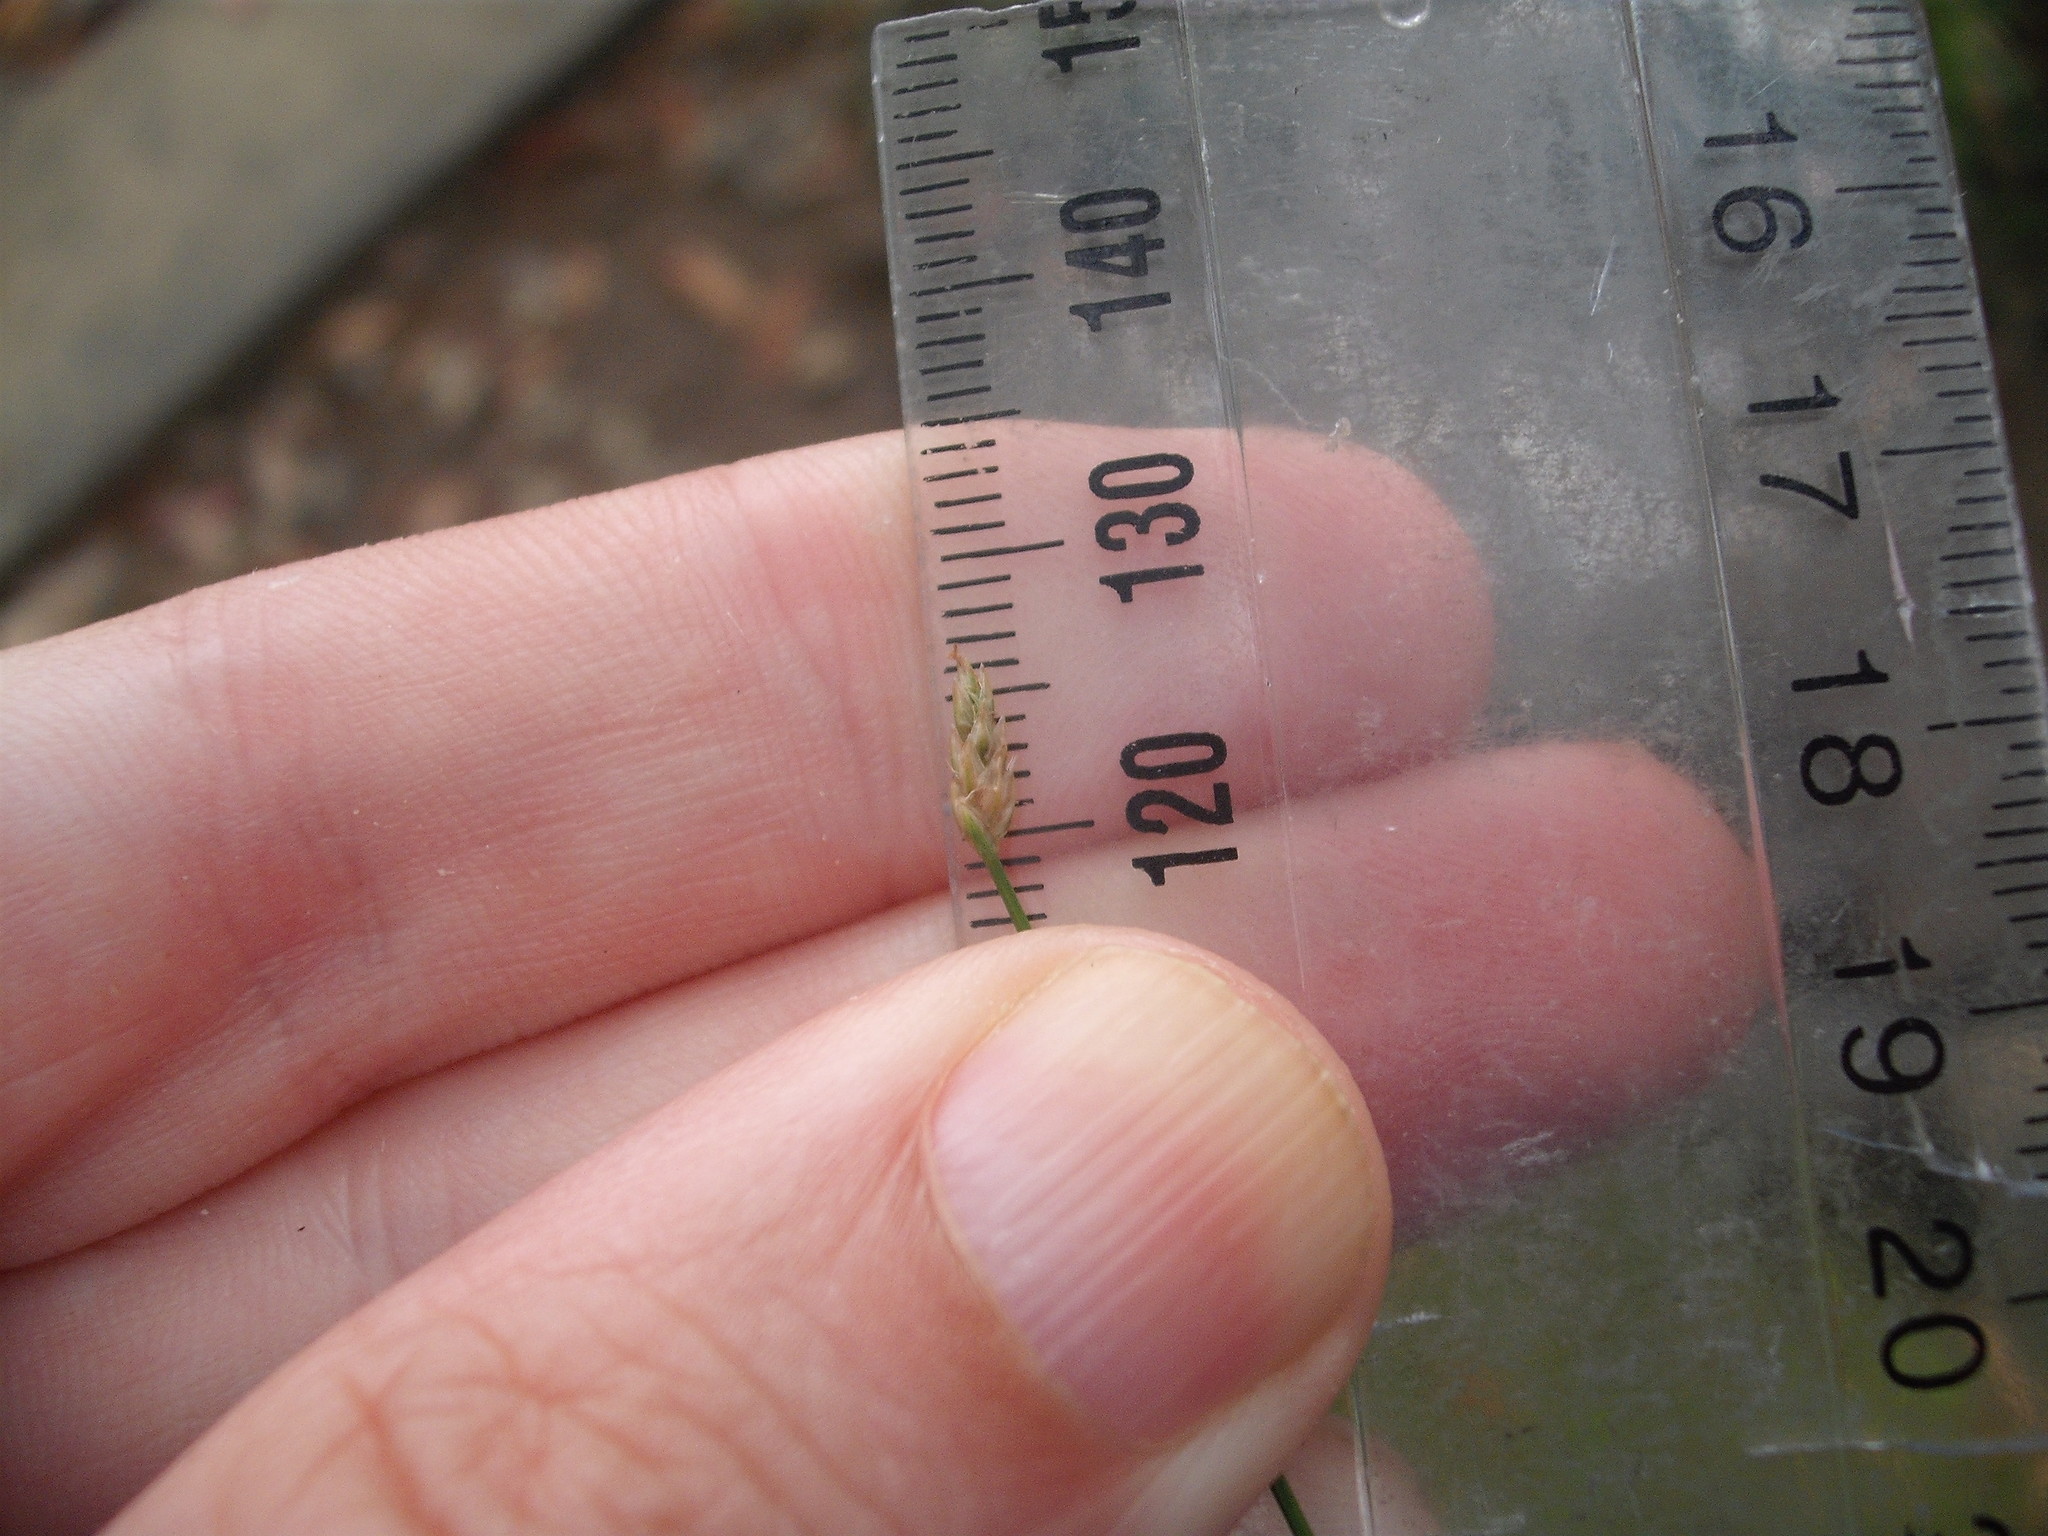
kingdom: Plantae
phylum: Tracheophyta
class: Liliopsida
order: Poales
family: Cyperaceae
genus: Eleocharis
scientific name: Eleocharis gracilis
